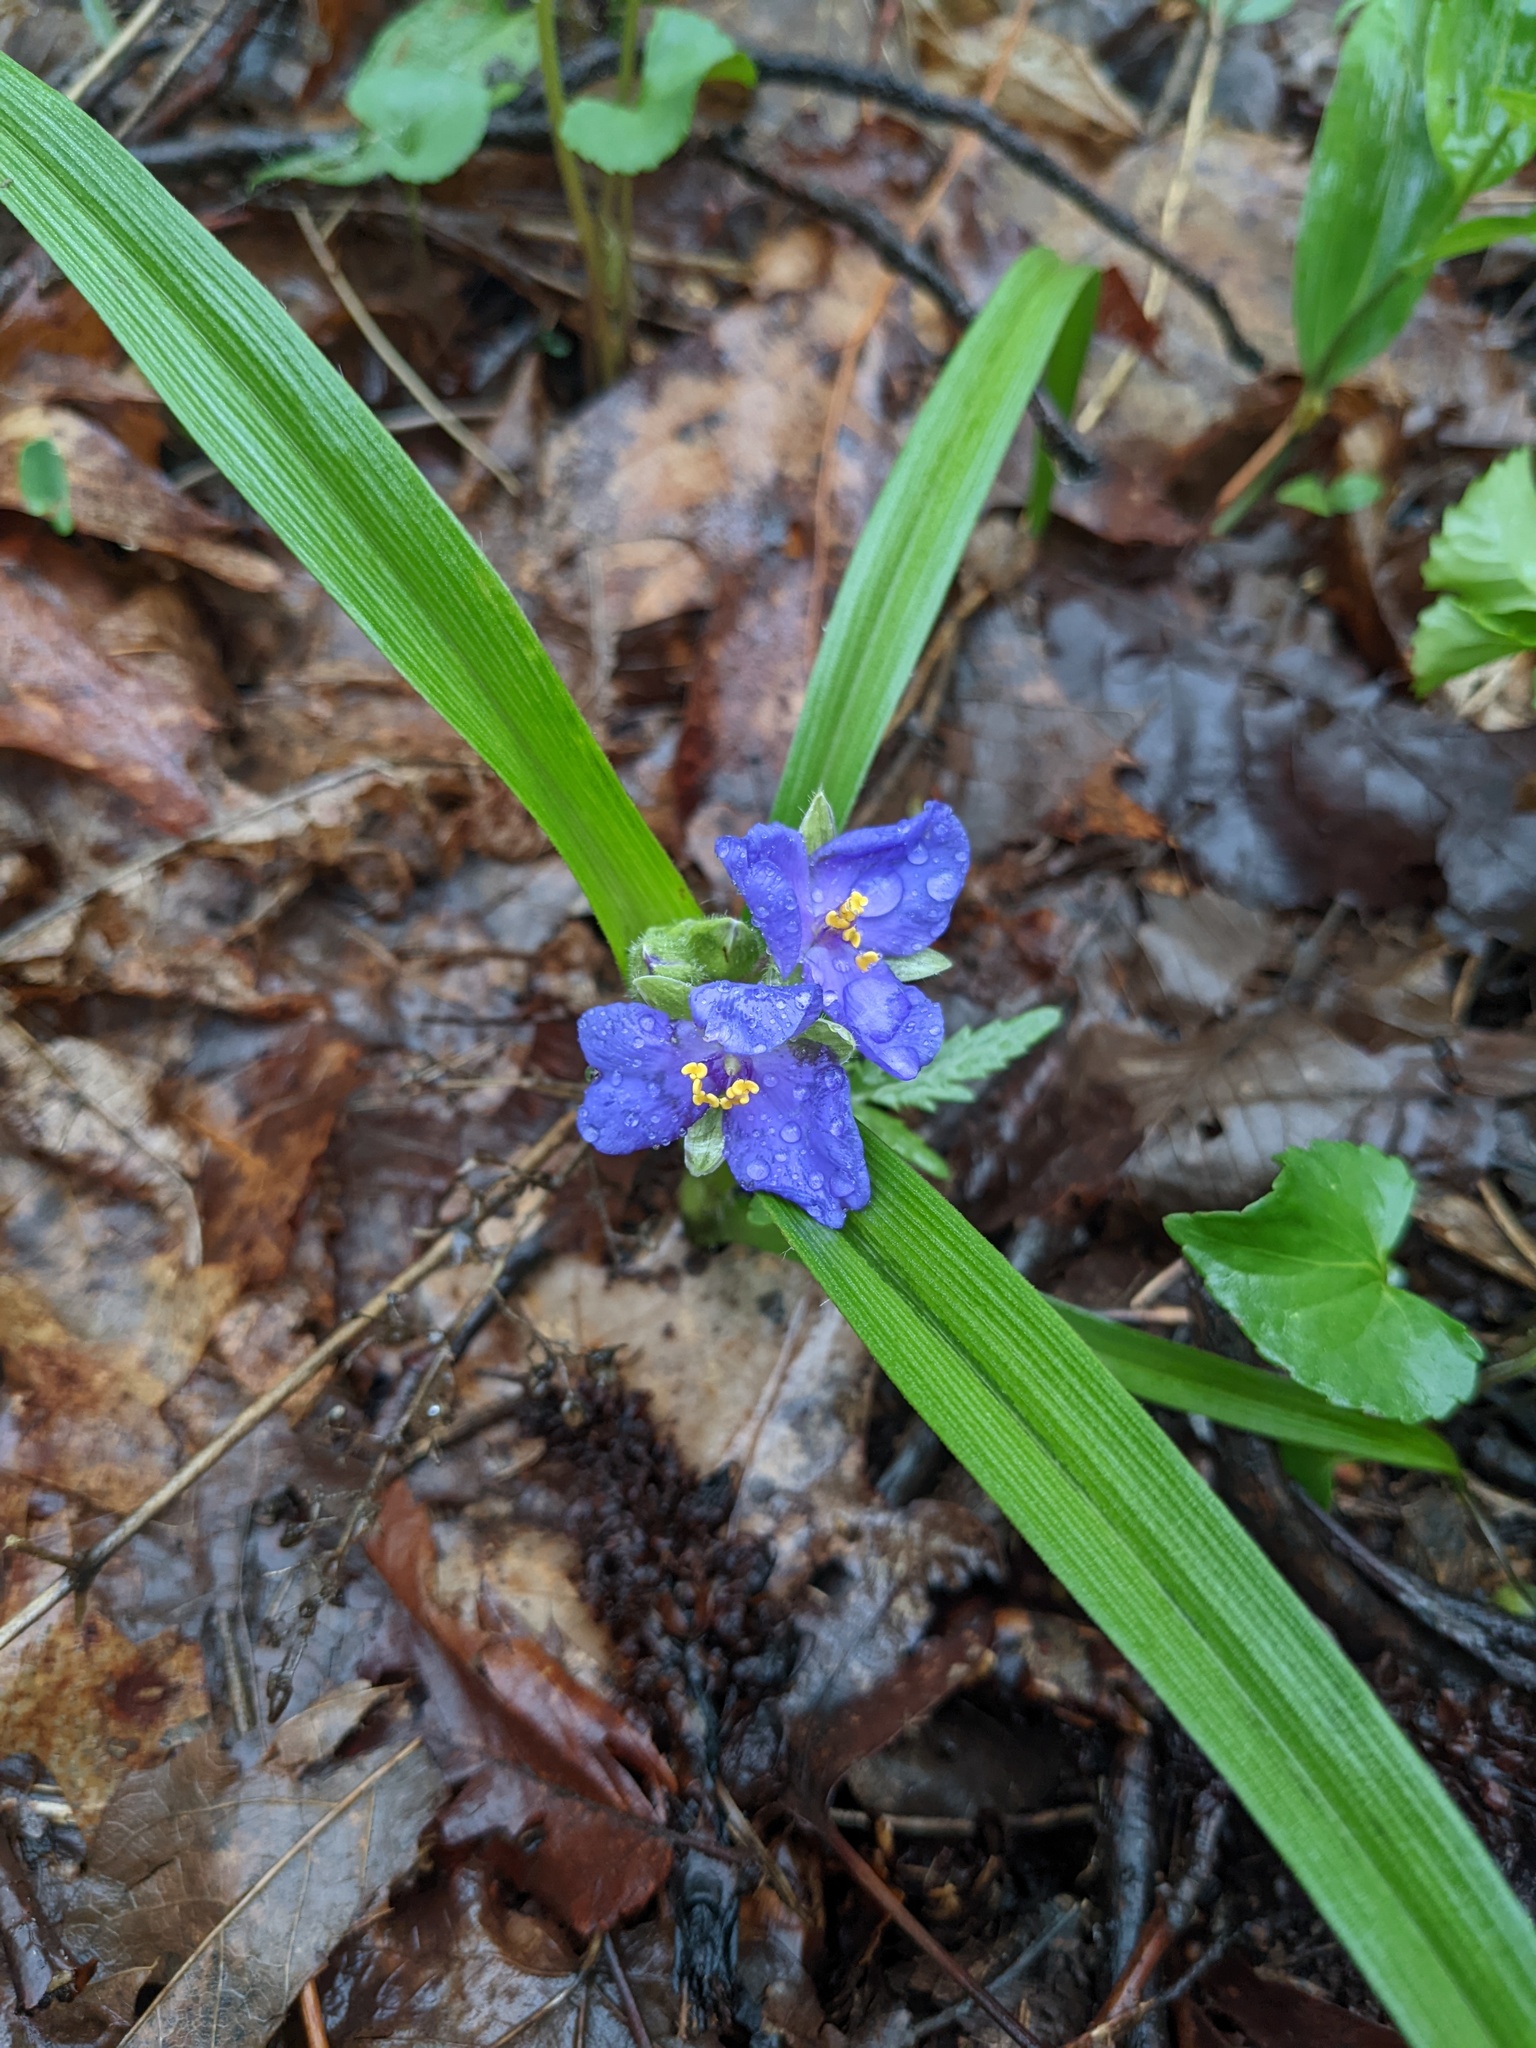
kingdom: Plantae
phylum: Tracheophyta
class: Liliopsida
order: Commelinales
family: Commelinaceae
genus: Tradescantia
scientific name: Tradescantia virginiana
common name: Spiderwort
